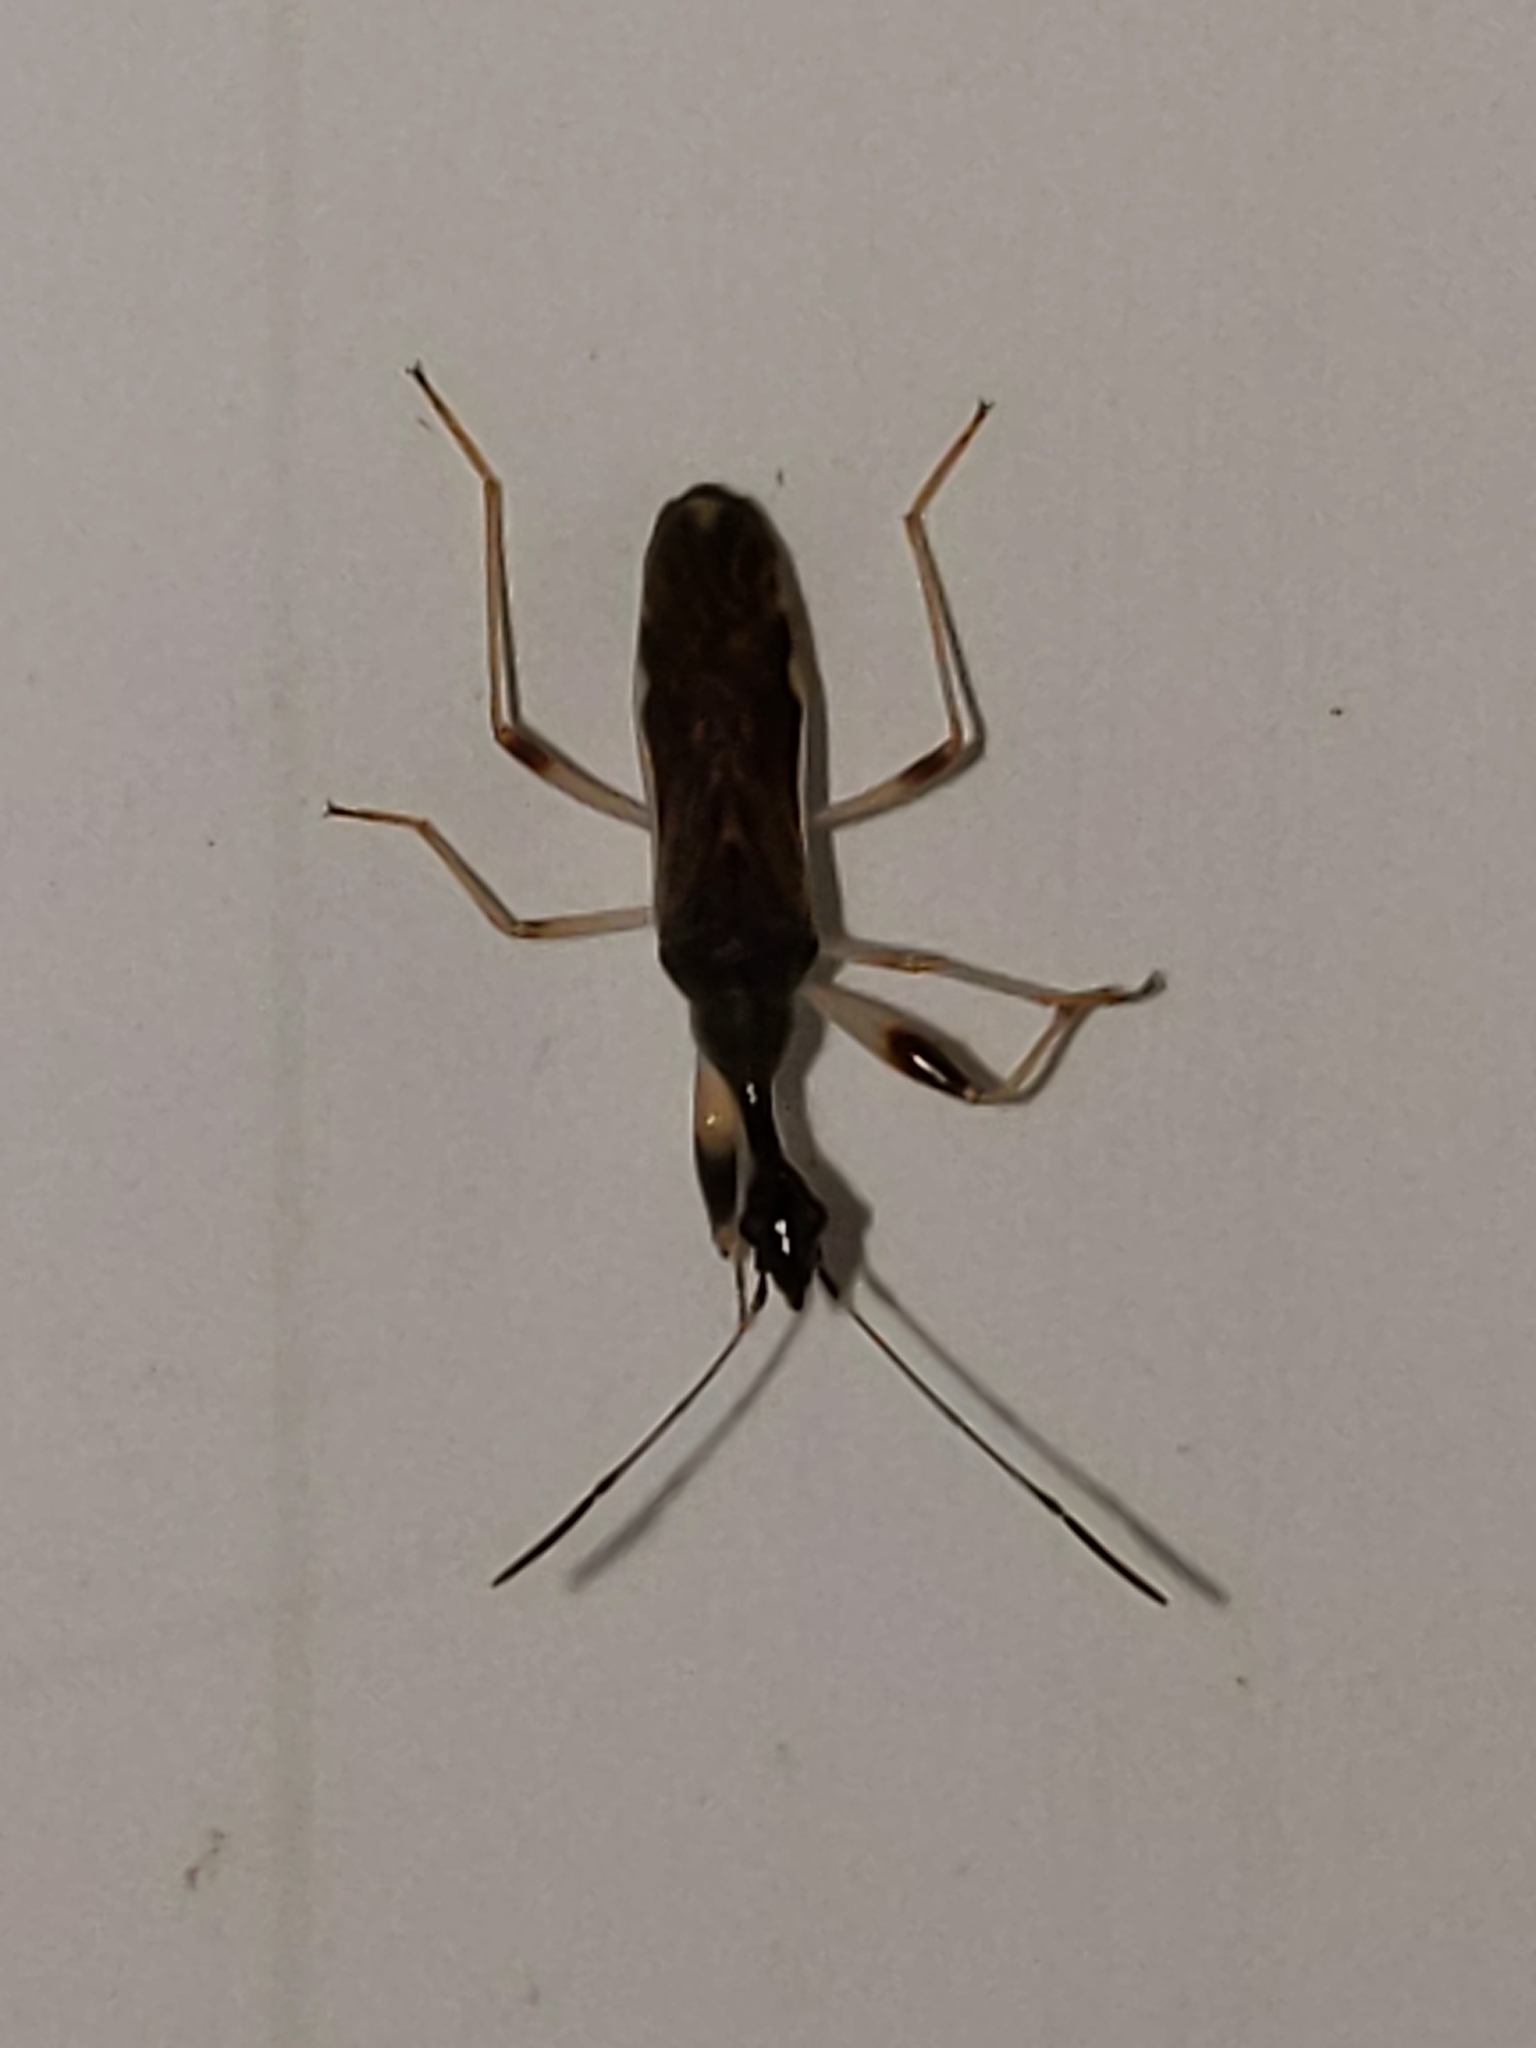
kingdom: Animalia
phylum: Arthropoda
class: Insecta
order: Hemiptera
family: Rhyparochromidae
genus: Myodocha
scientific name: Myodocha serripes
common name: Long-necked seed bug
